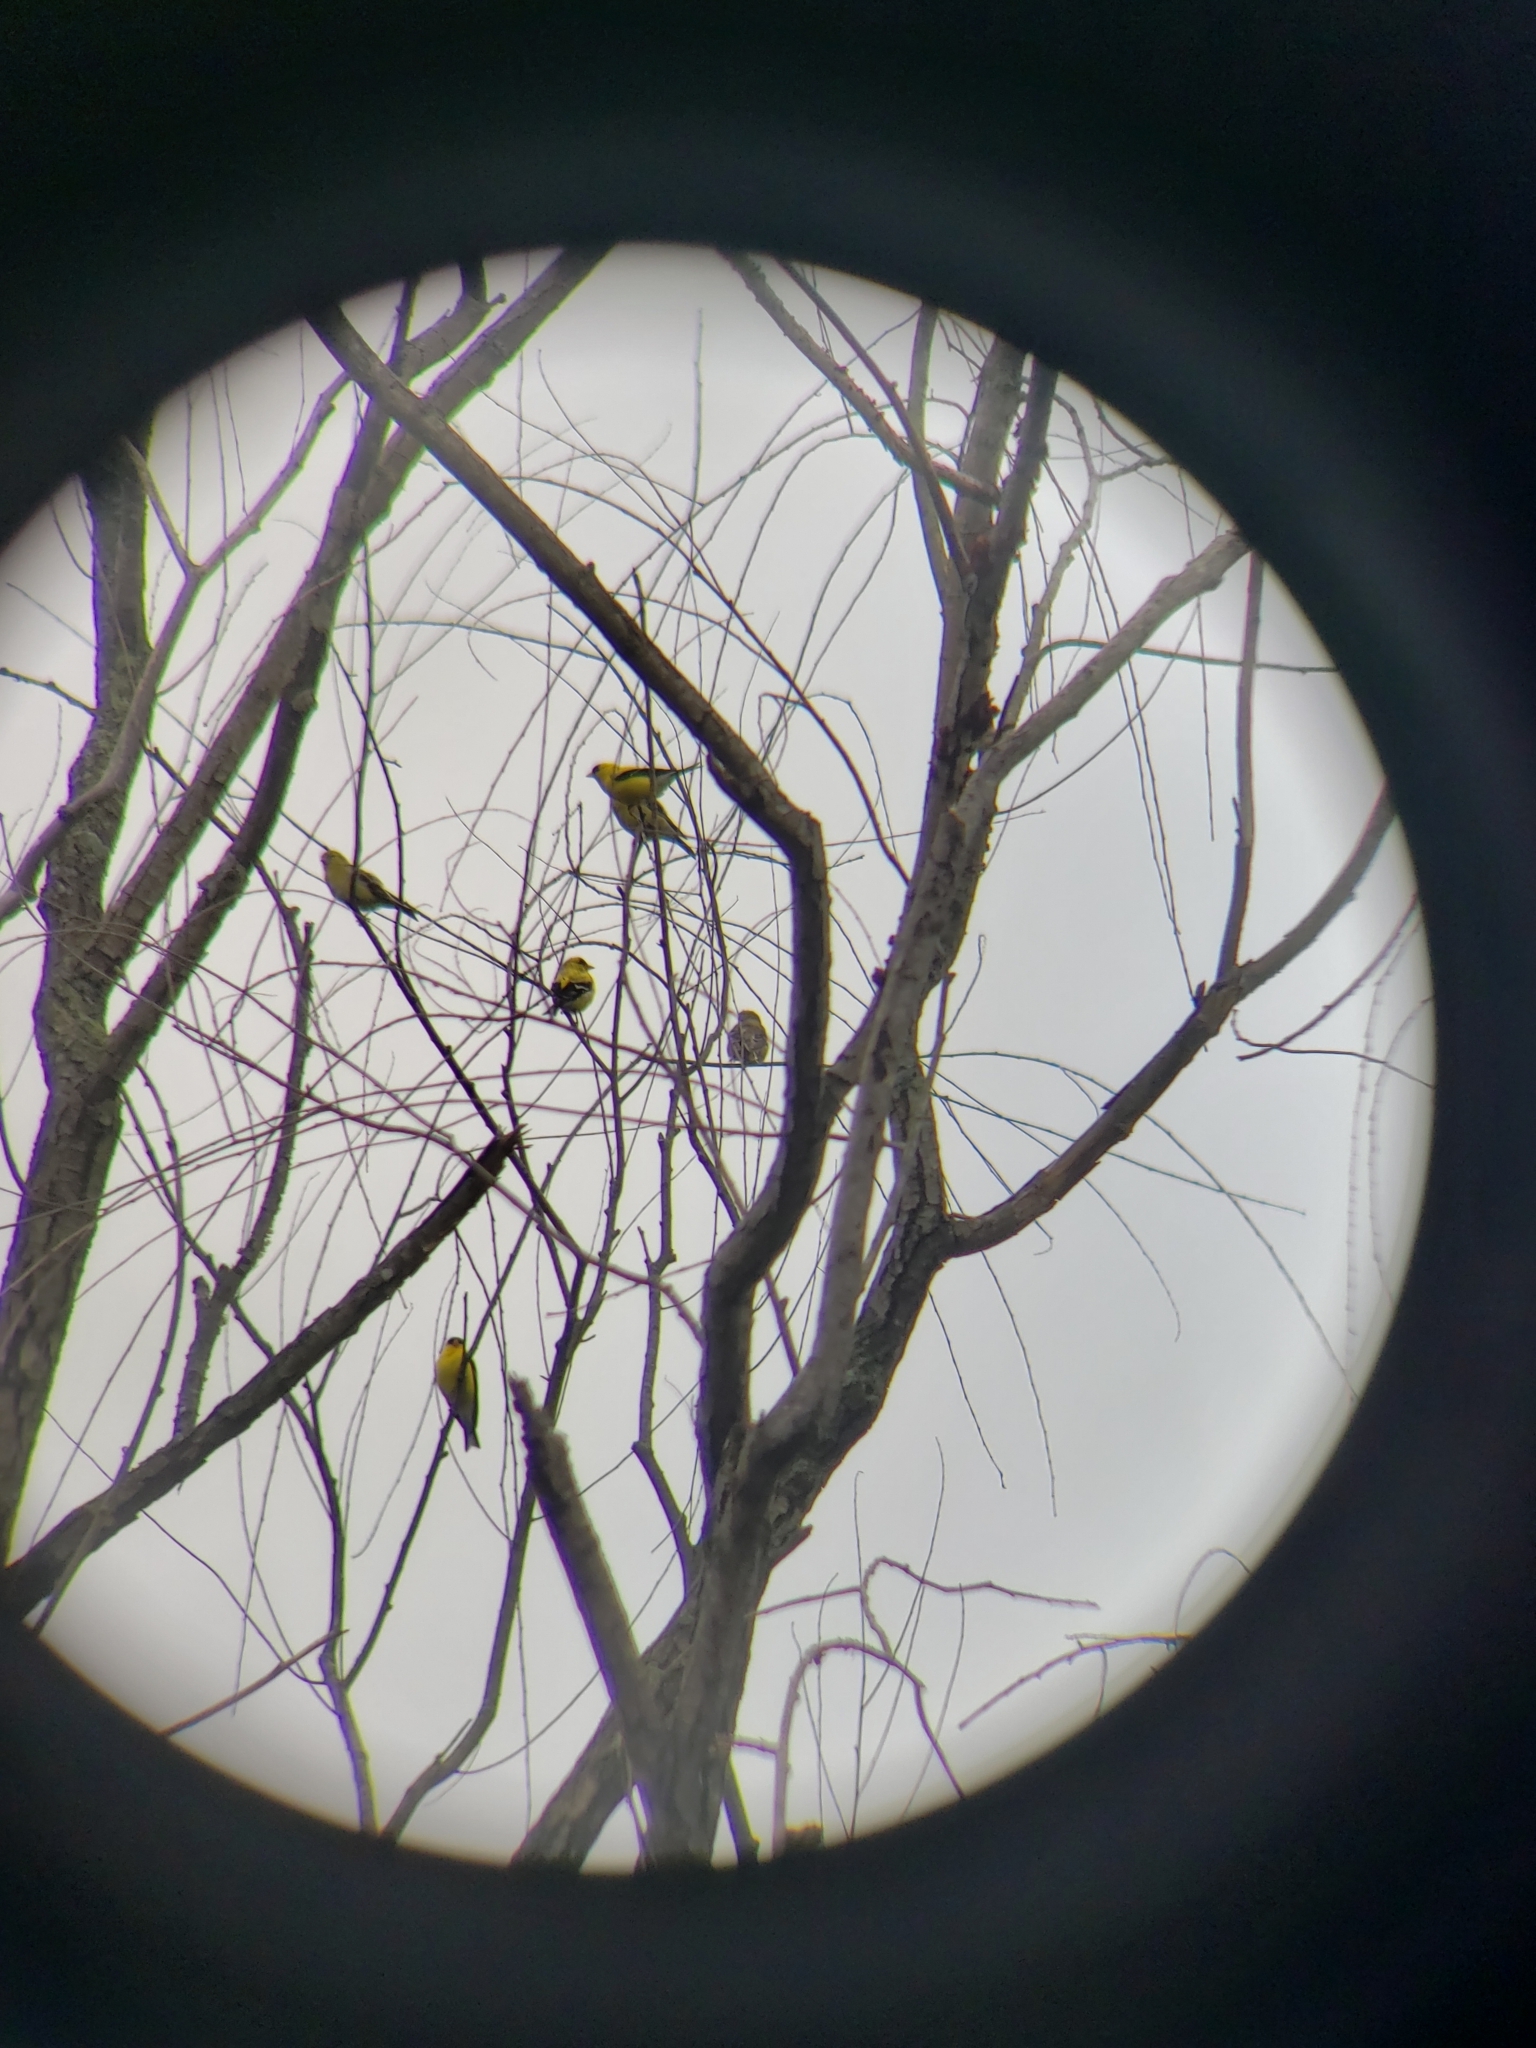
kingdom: Animalia
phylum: Chordata
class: Aves
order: Passeriformes
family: Fringillidae
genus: Spinus
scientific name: Spinus tristis
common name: American goldfinch
